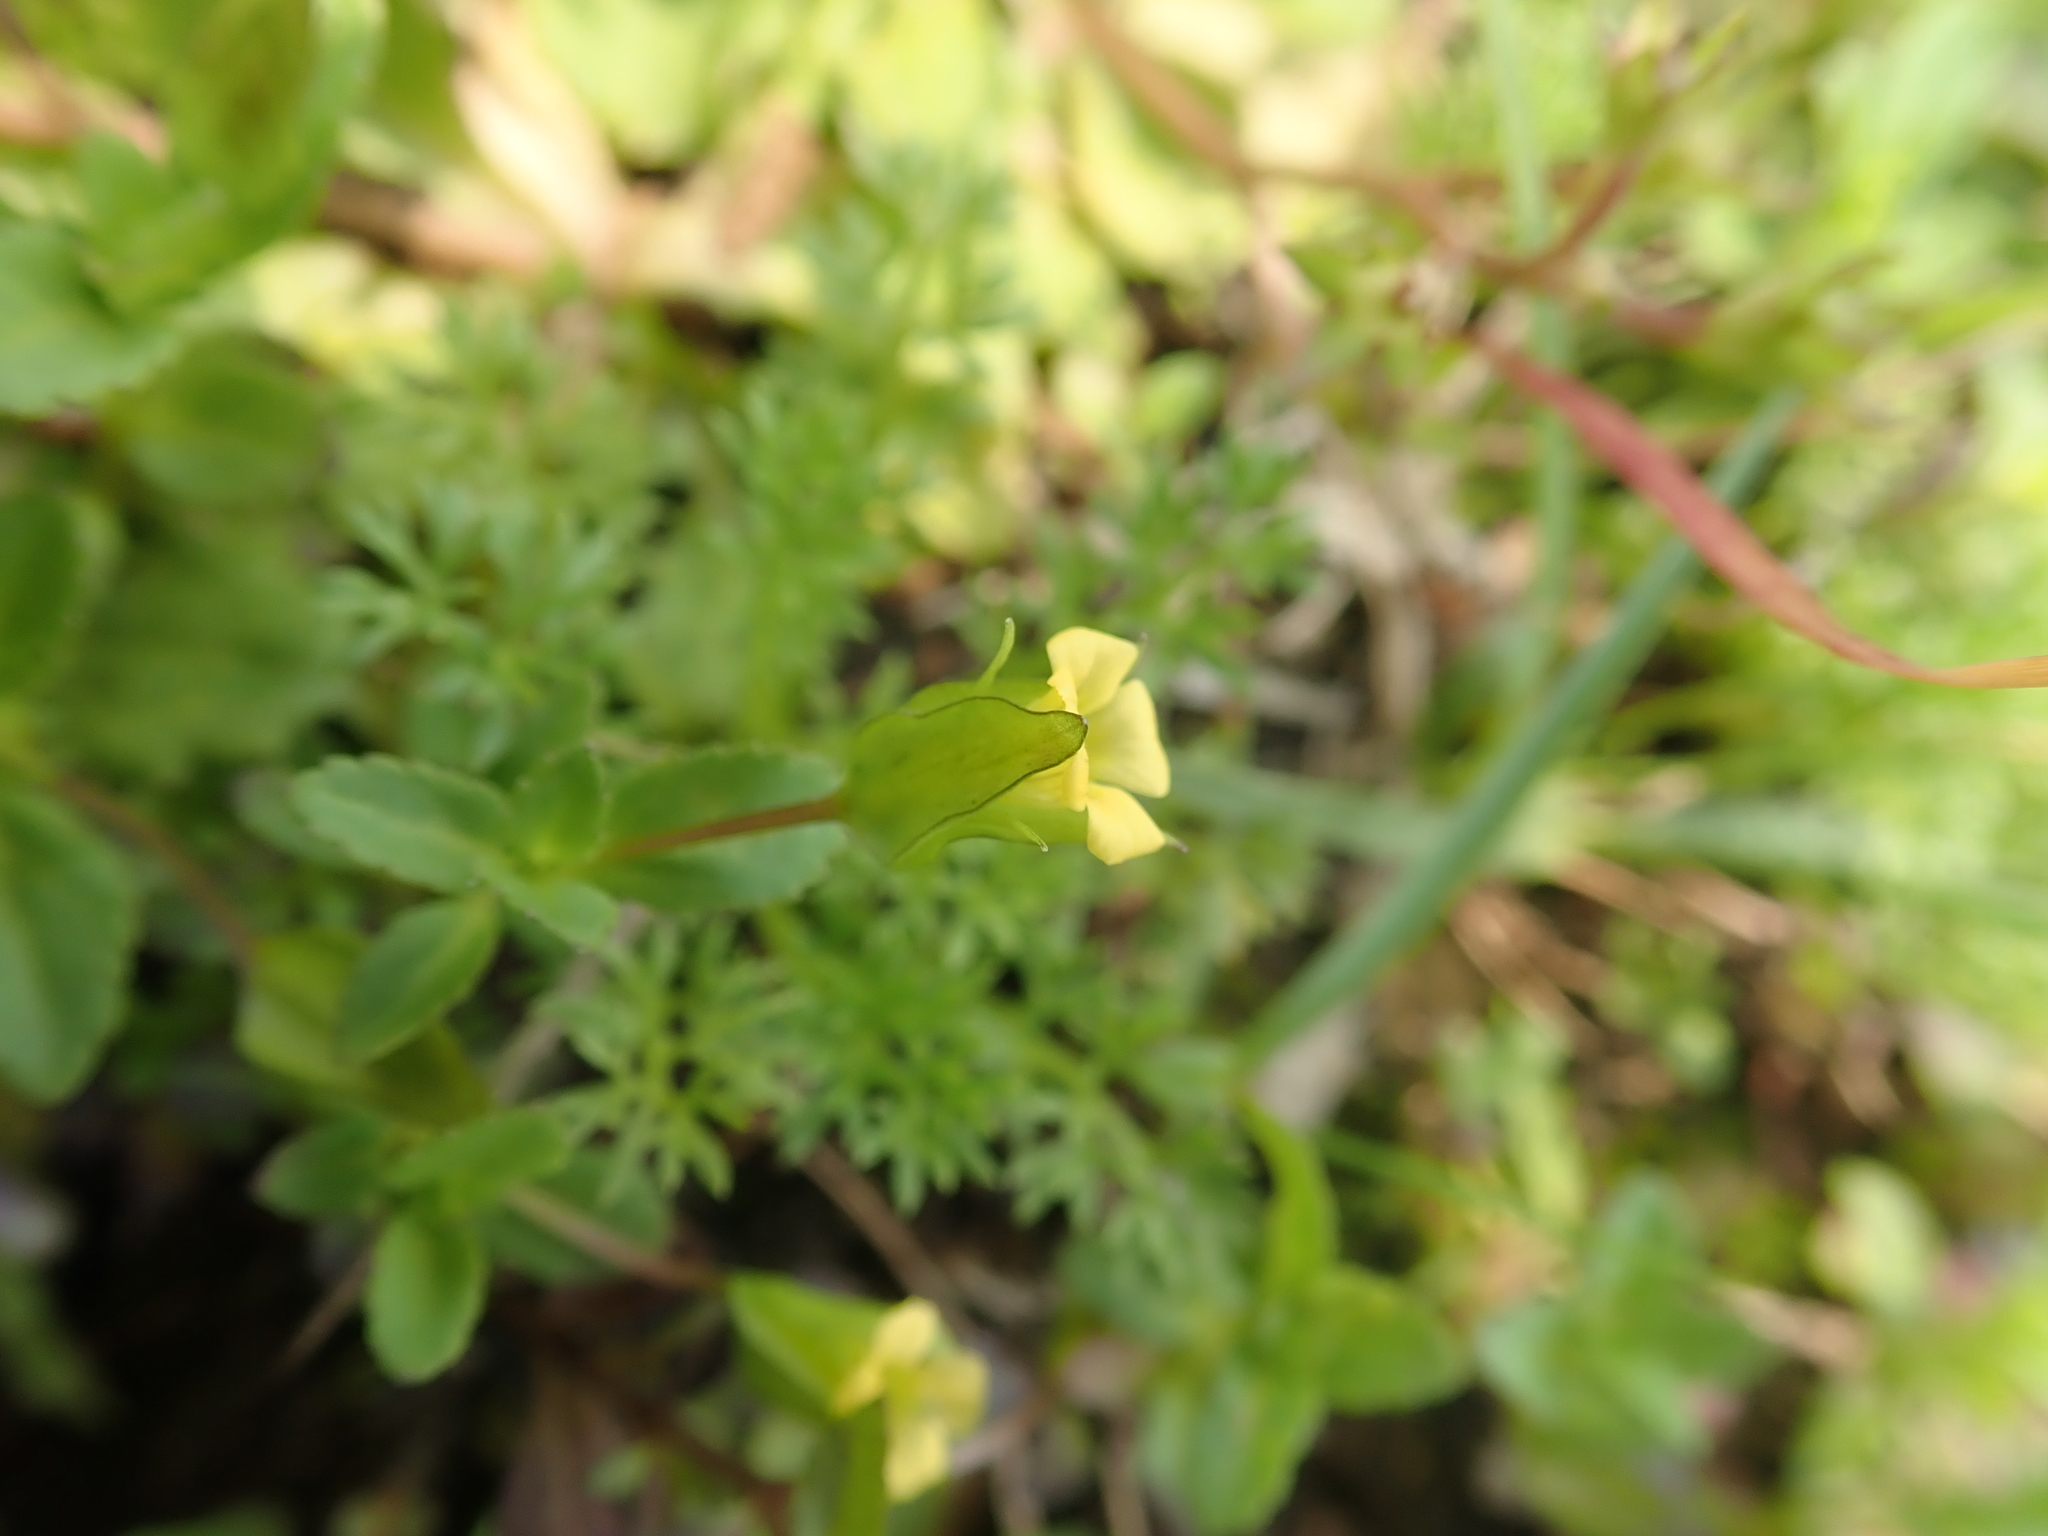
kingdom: Plantae
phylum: Tracheophyta
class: Magnoliopsida
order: Lamiales
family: Plantaginaceae
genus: Mecardonia
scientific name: Mecardonia procumbens
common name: Baby jump-up
